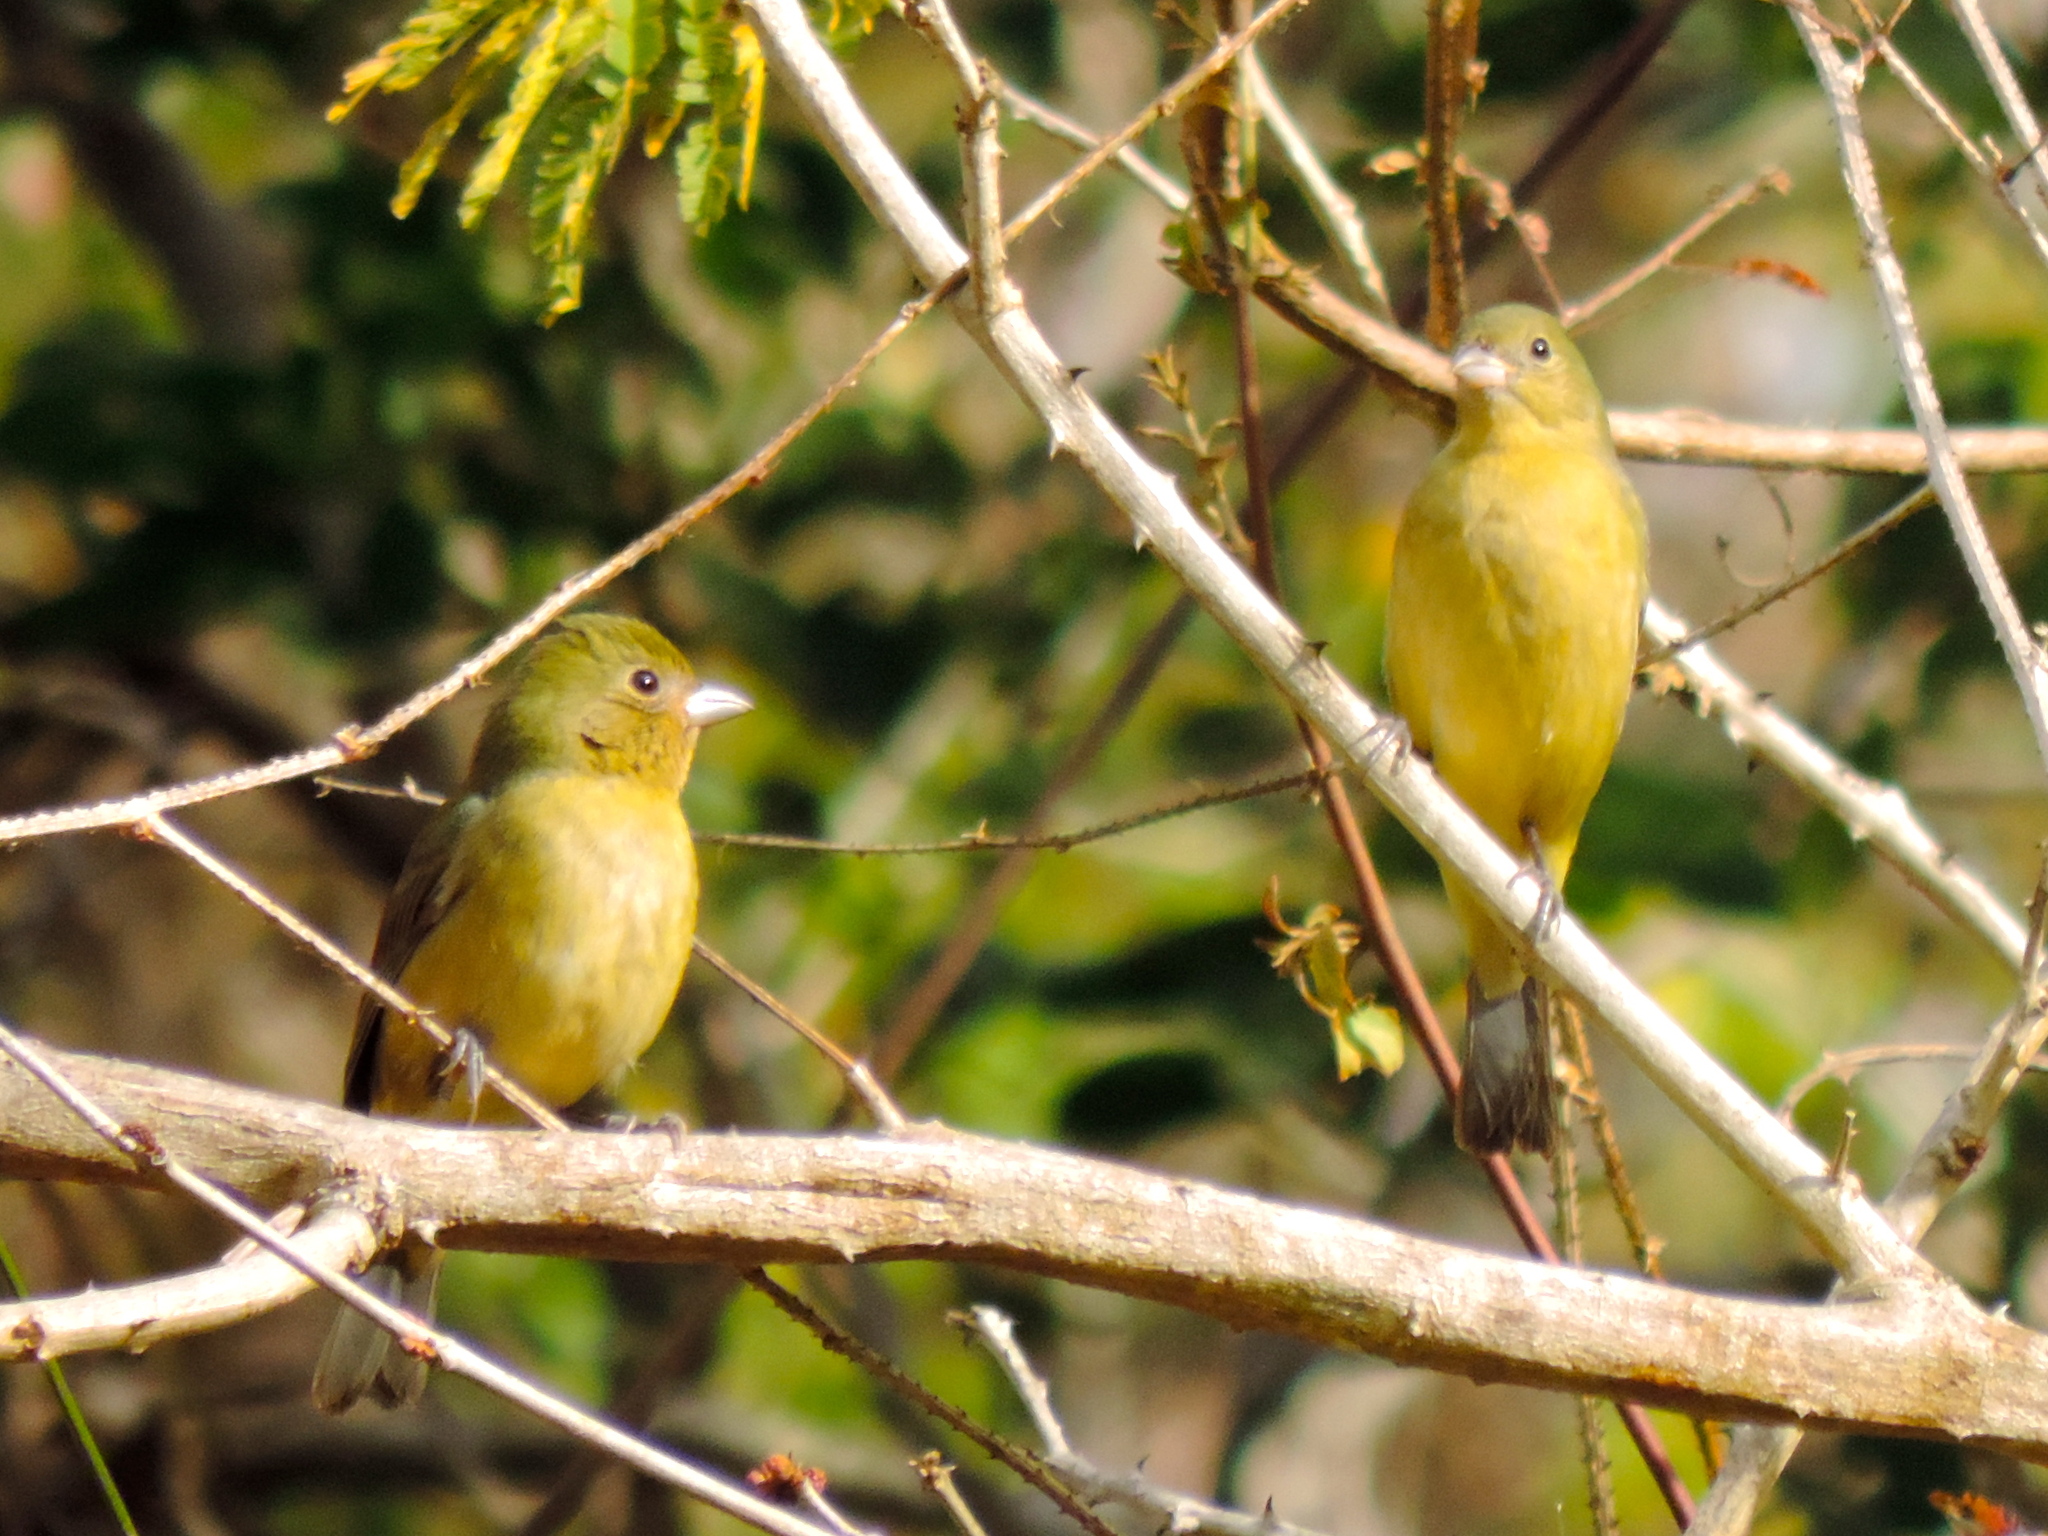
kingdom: Animalia
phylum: Chordata
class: Aves
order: Passeriformes
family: Cardinalidae
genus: Passerina
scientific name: Passerina ciris
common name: Painted bunting
